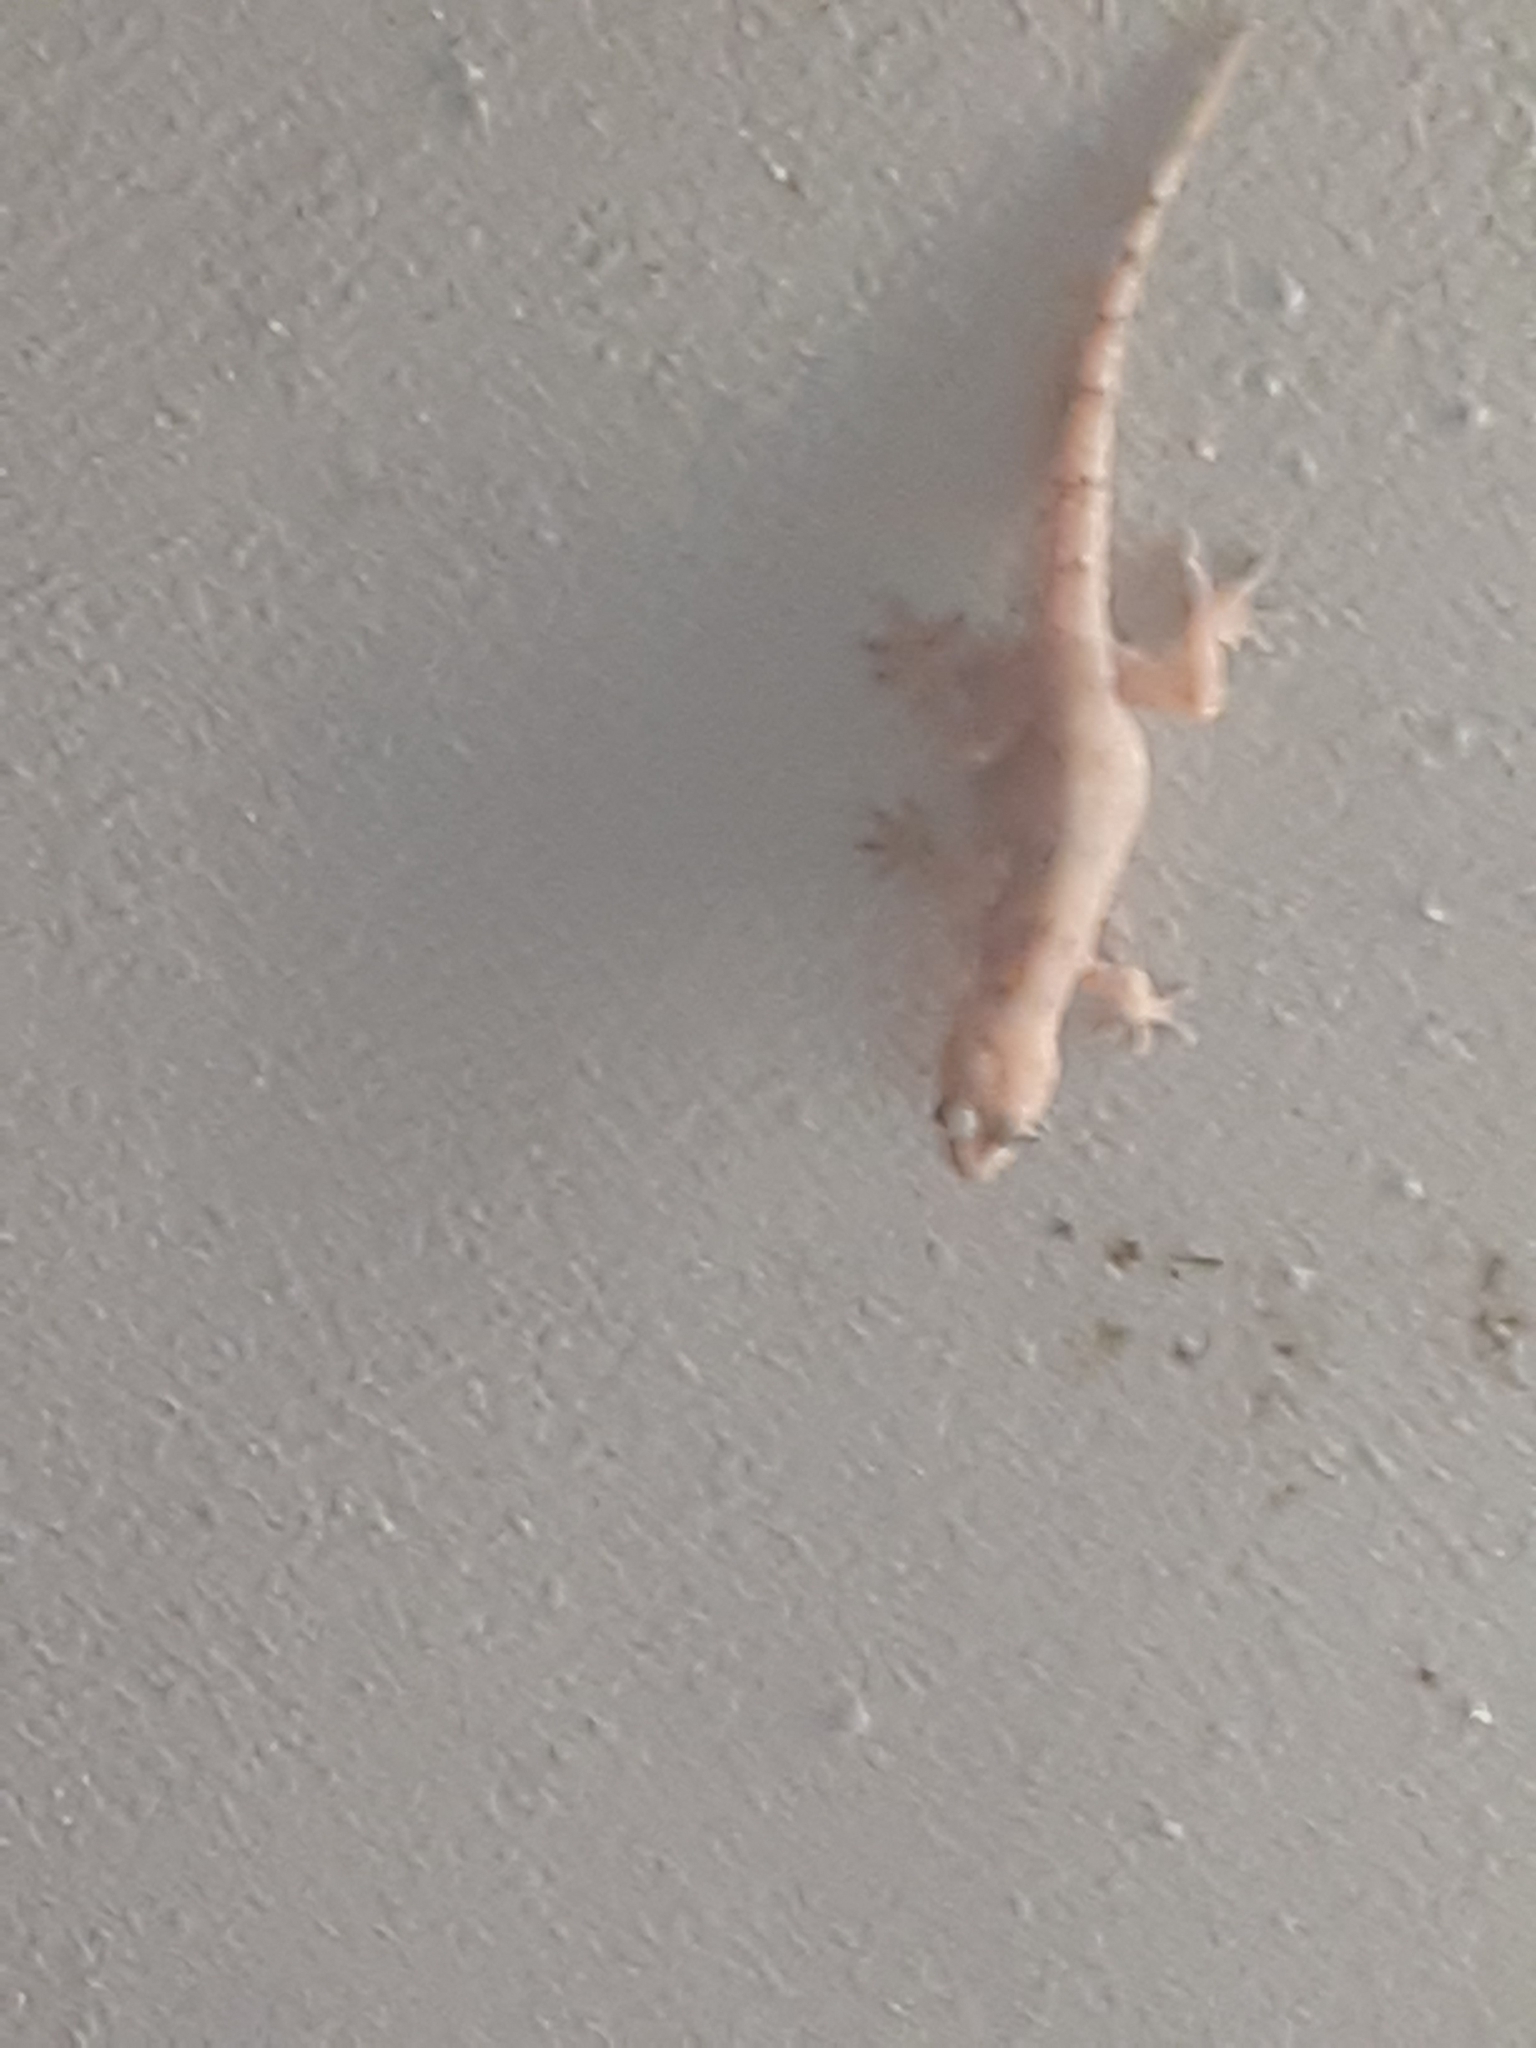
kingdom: Animalia
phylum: Chordata
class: Squamata
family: Gekkonidae
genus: Hemidactylus
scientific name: Hemidactylus mabouia
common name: House gecko
